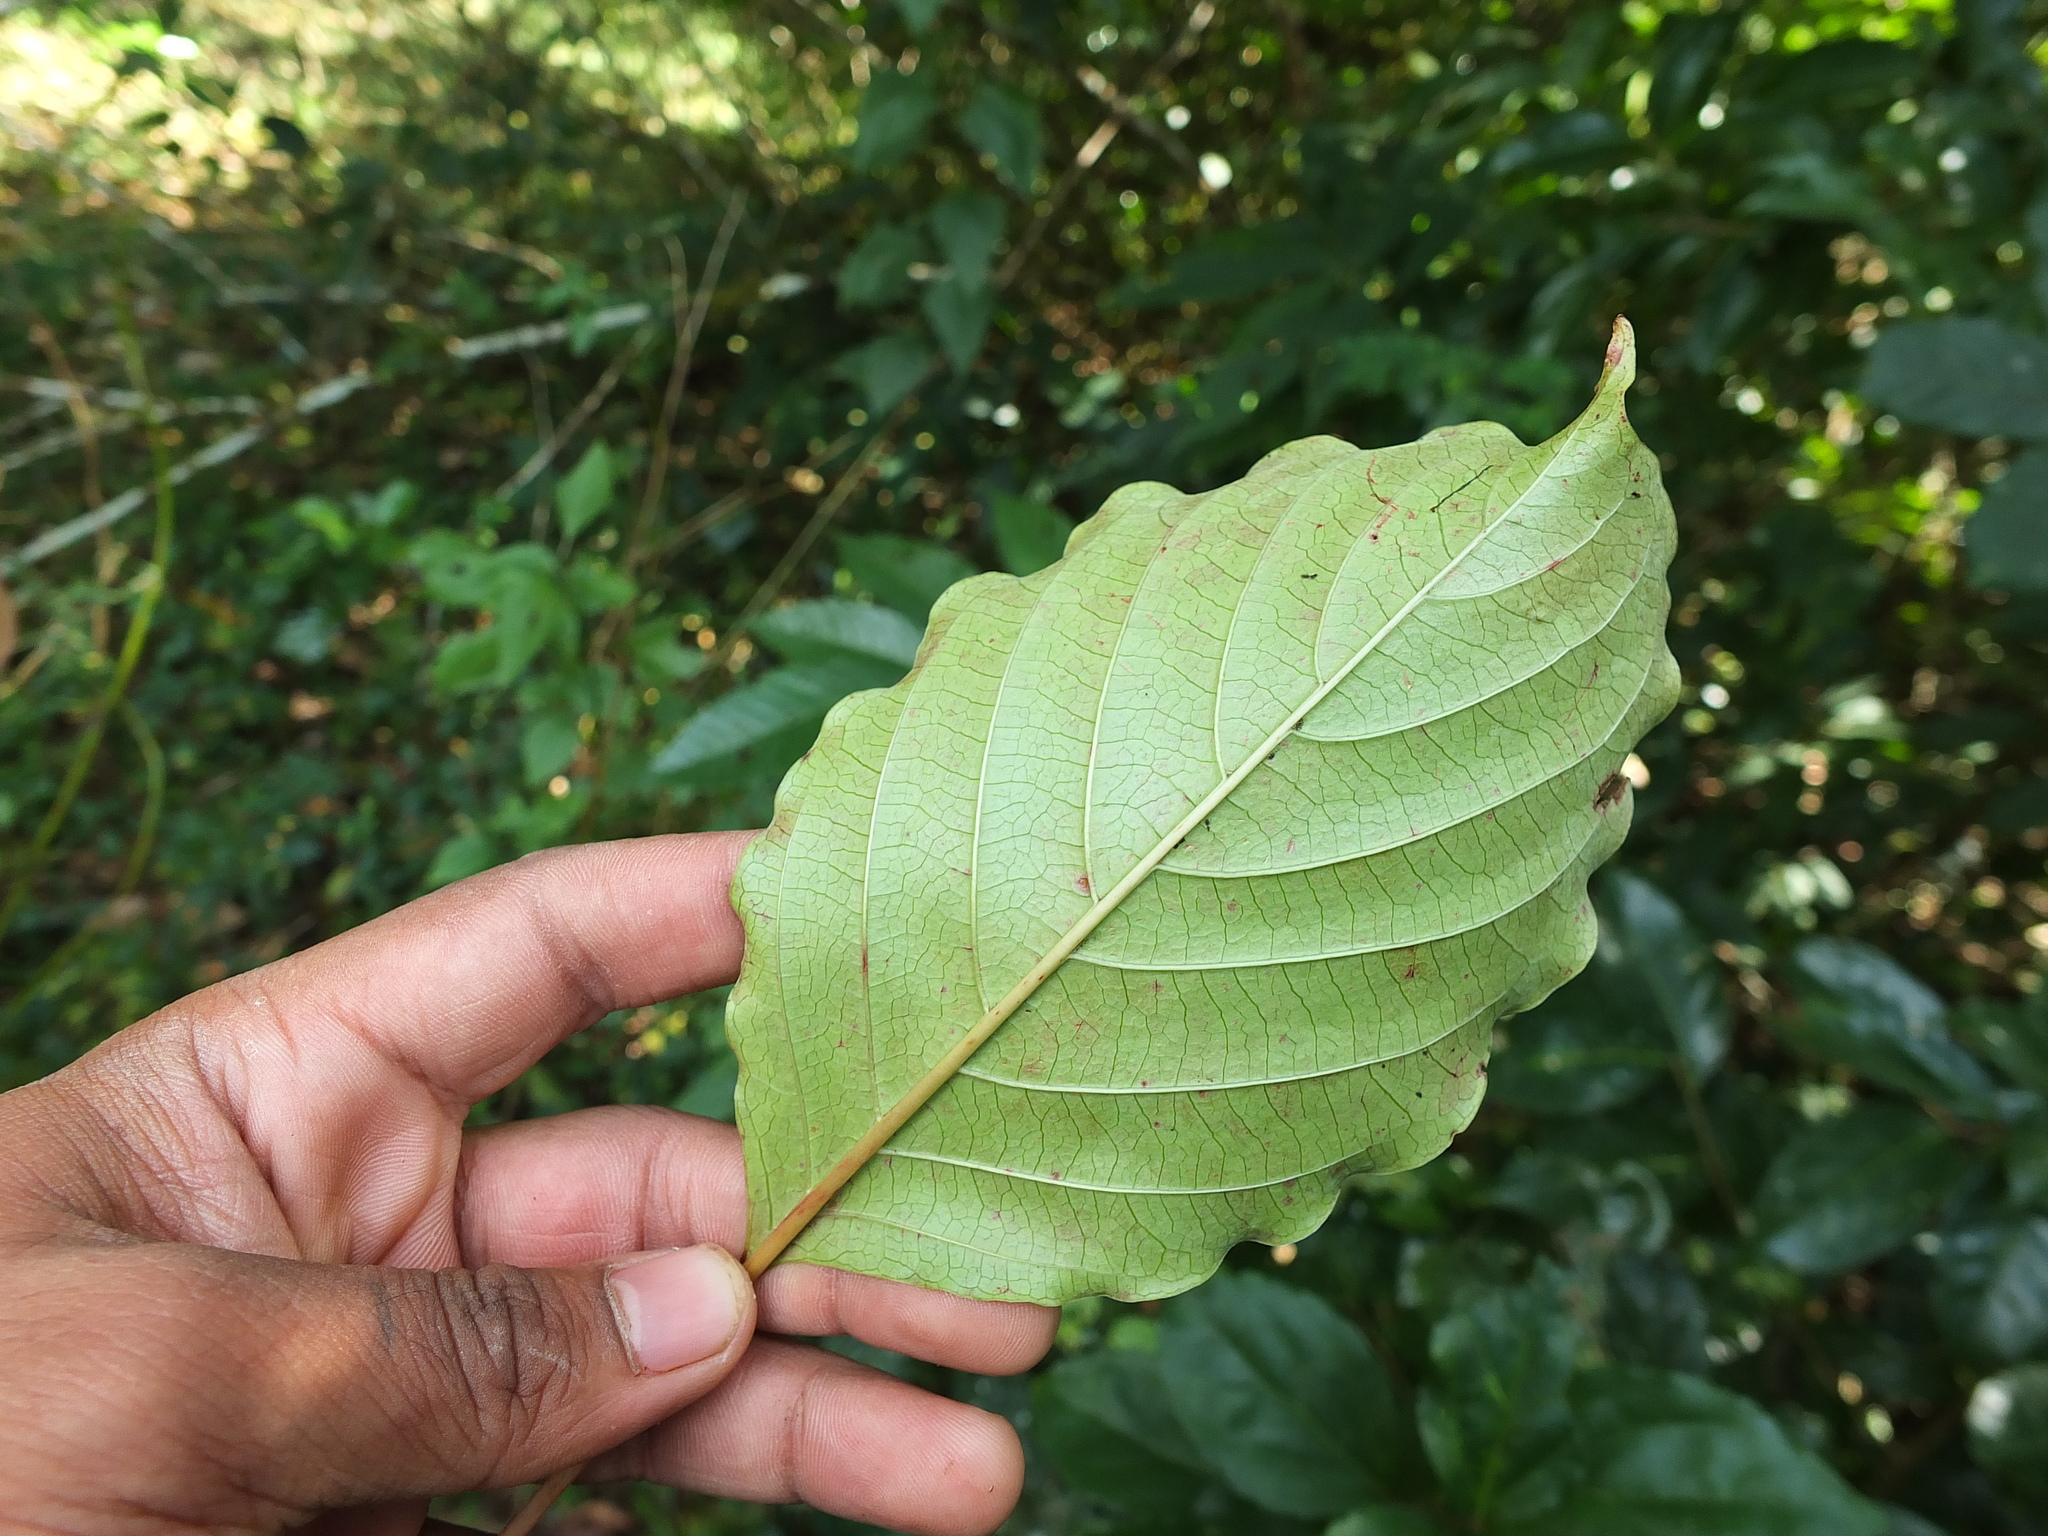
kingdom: Plantae
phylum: Tracheophyta
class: Magnoliopsida
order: Gentianales
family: Rubiaceae
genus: Hymenodictyon
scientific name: Hymenodictyon obovatum
